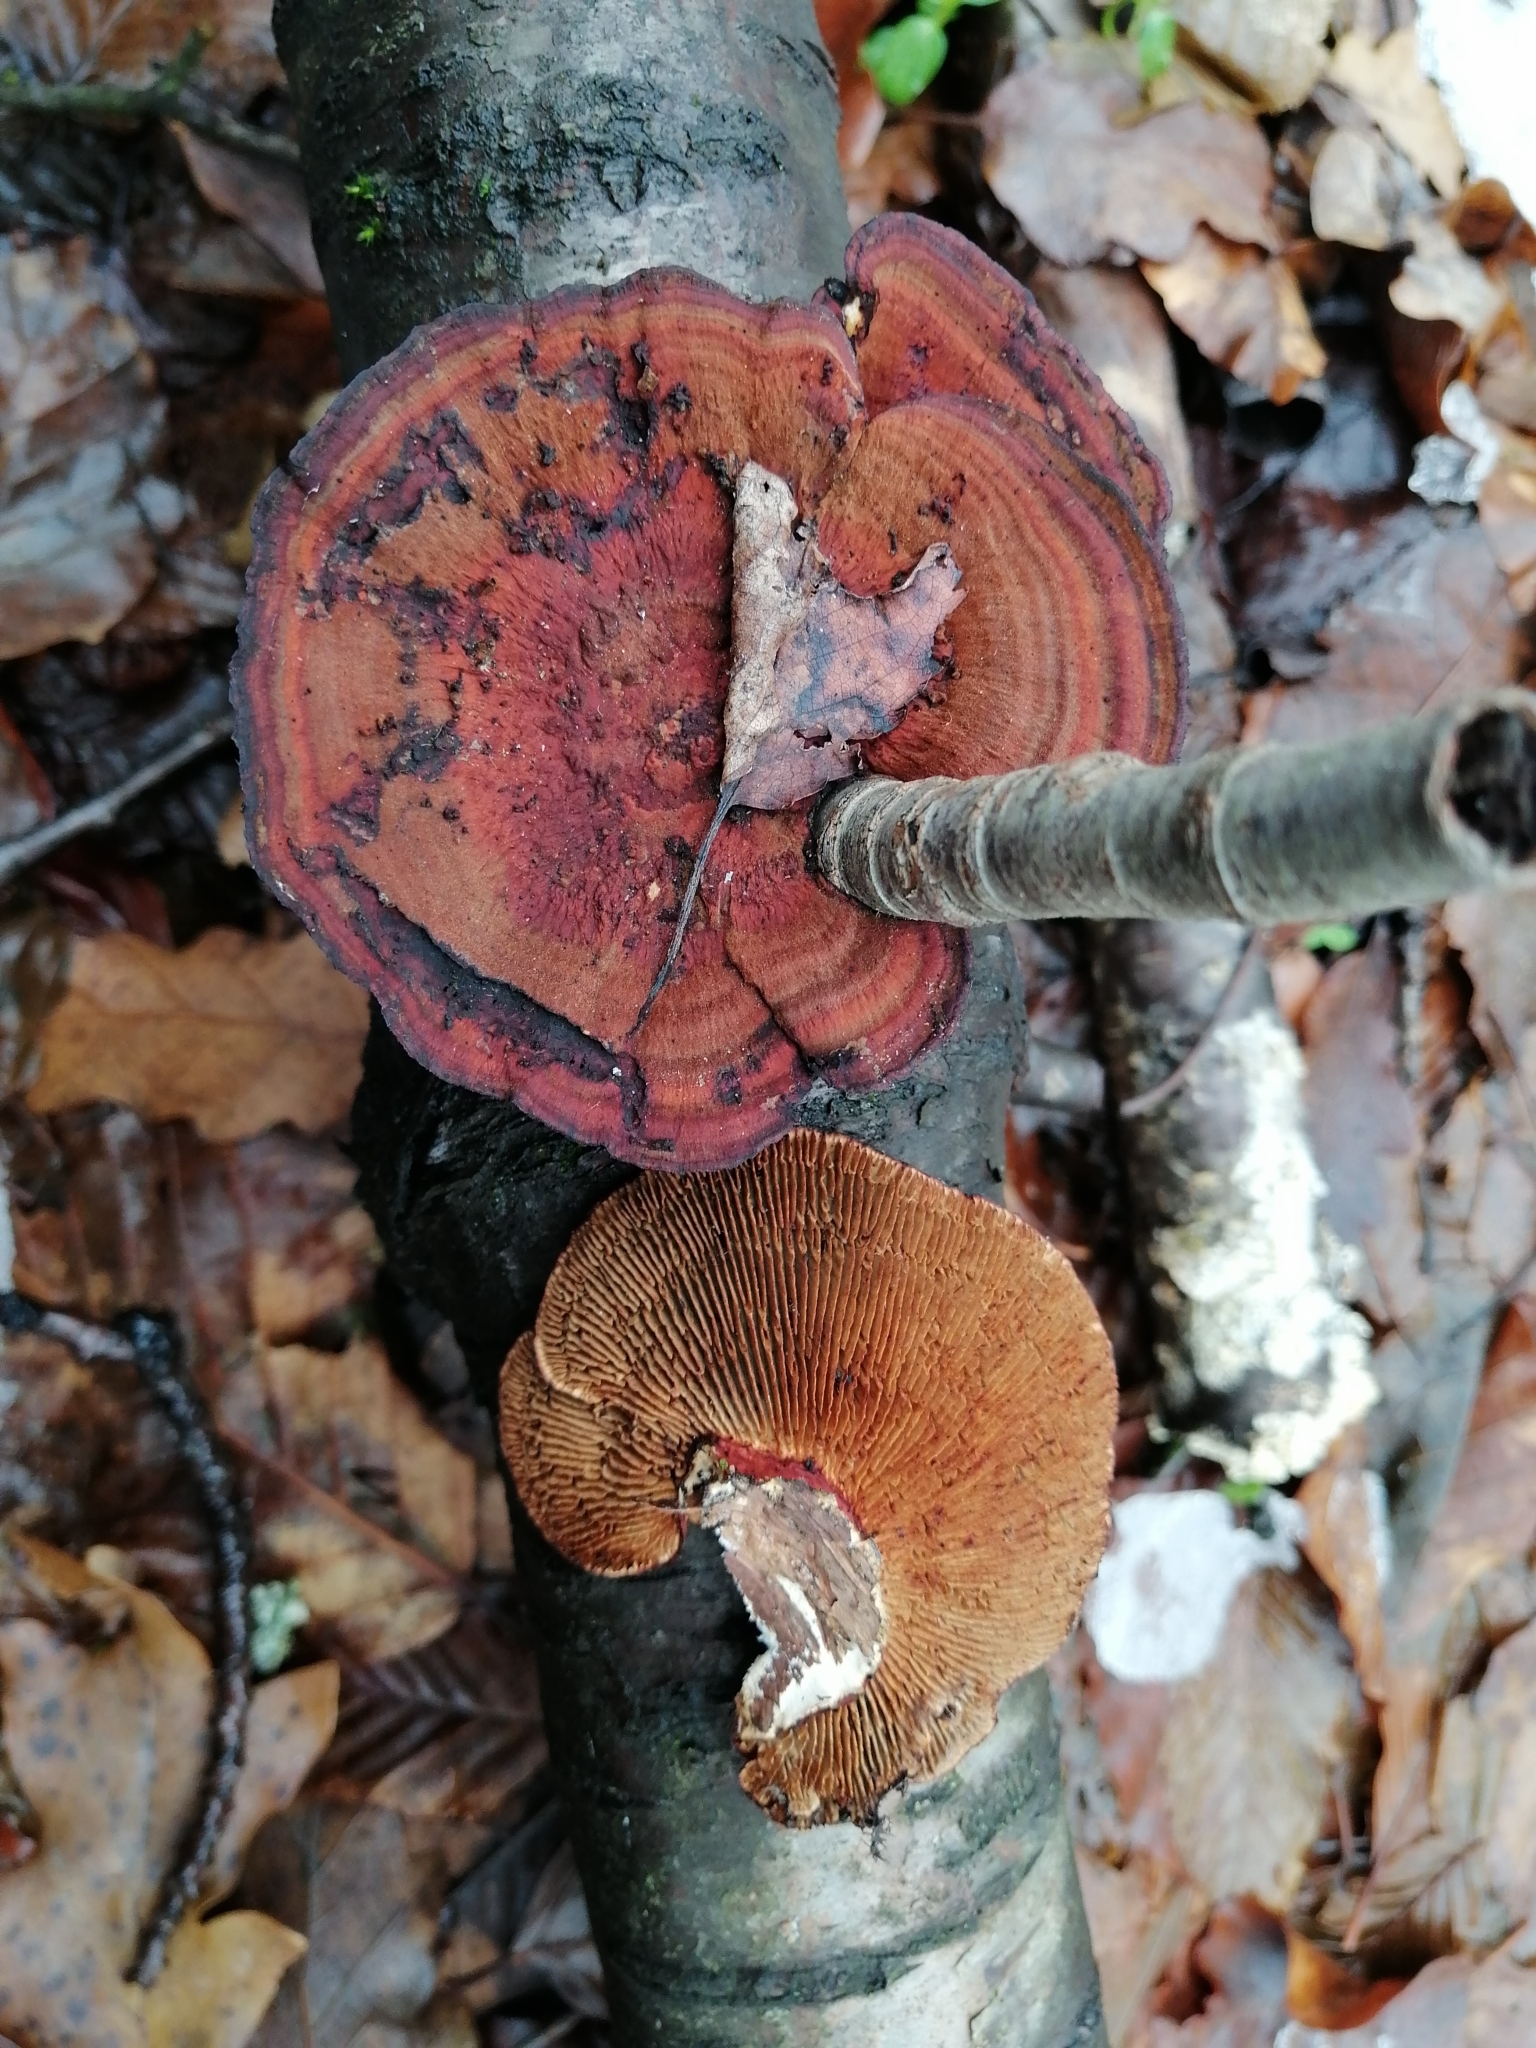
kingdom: Fungi
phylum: Basidiomycota
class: Agaricomycetes
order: Polyporales
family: Polyporaceae
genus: Daedaleopsis
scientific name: Daedaleopsis tricolor
